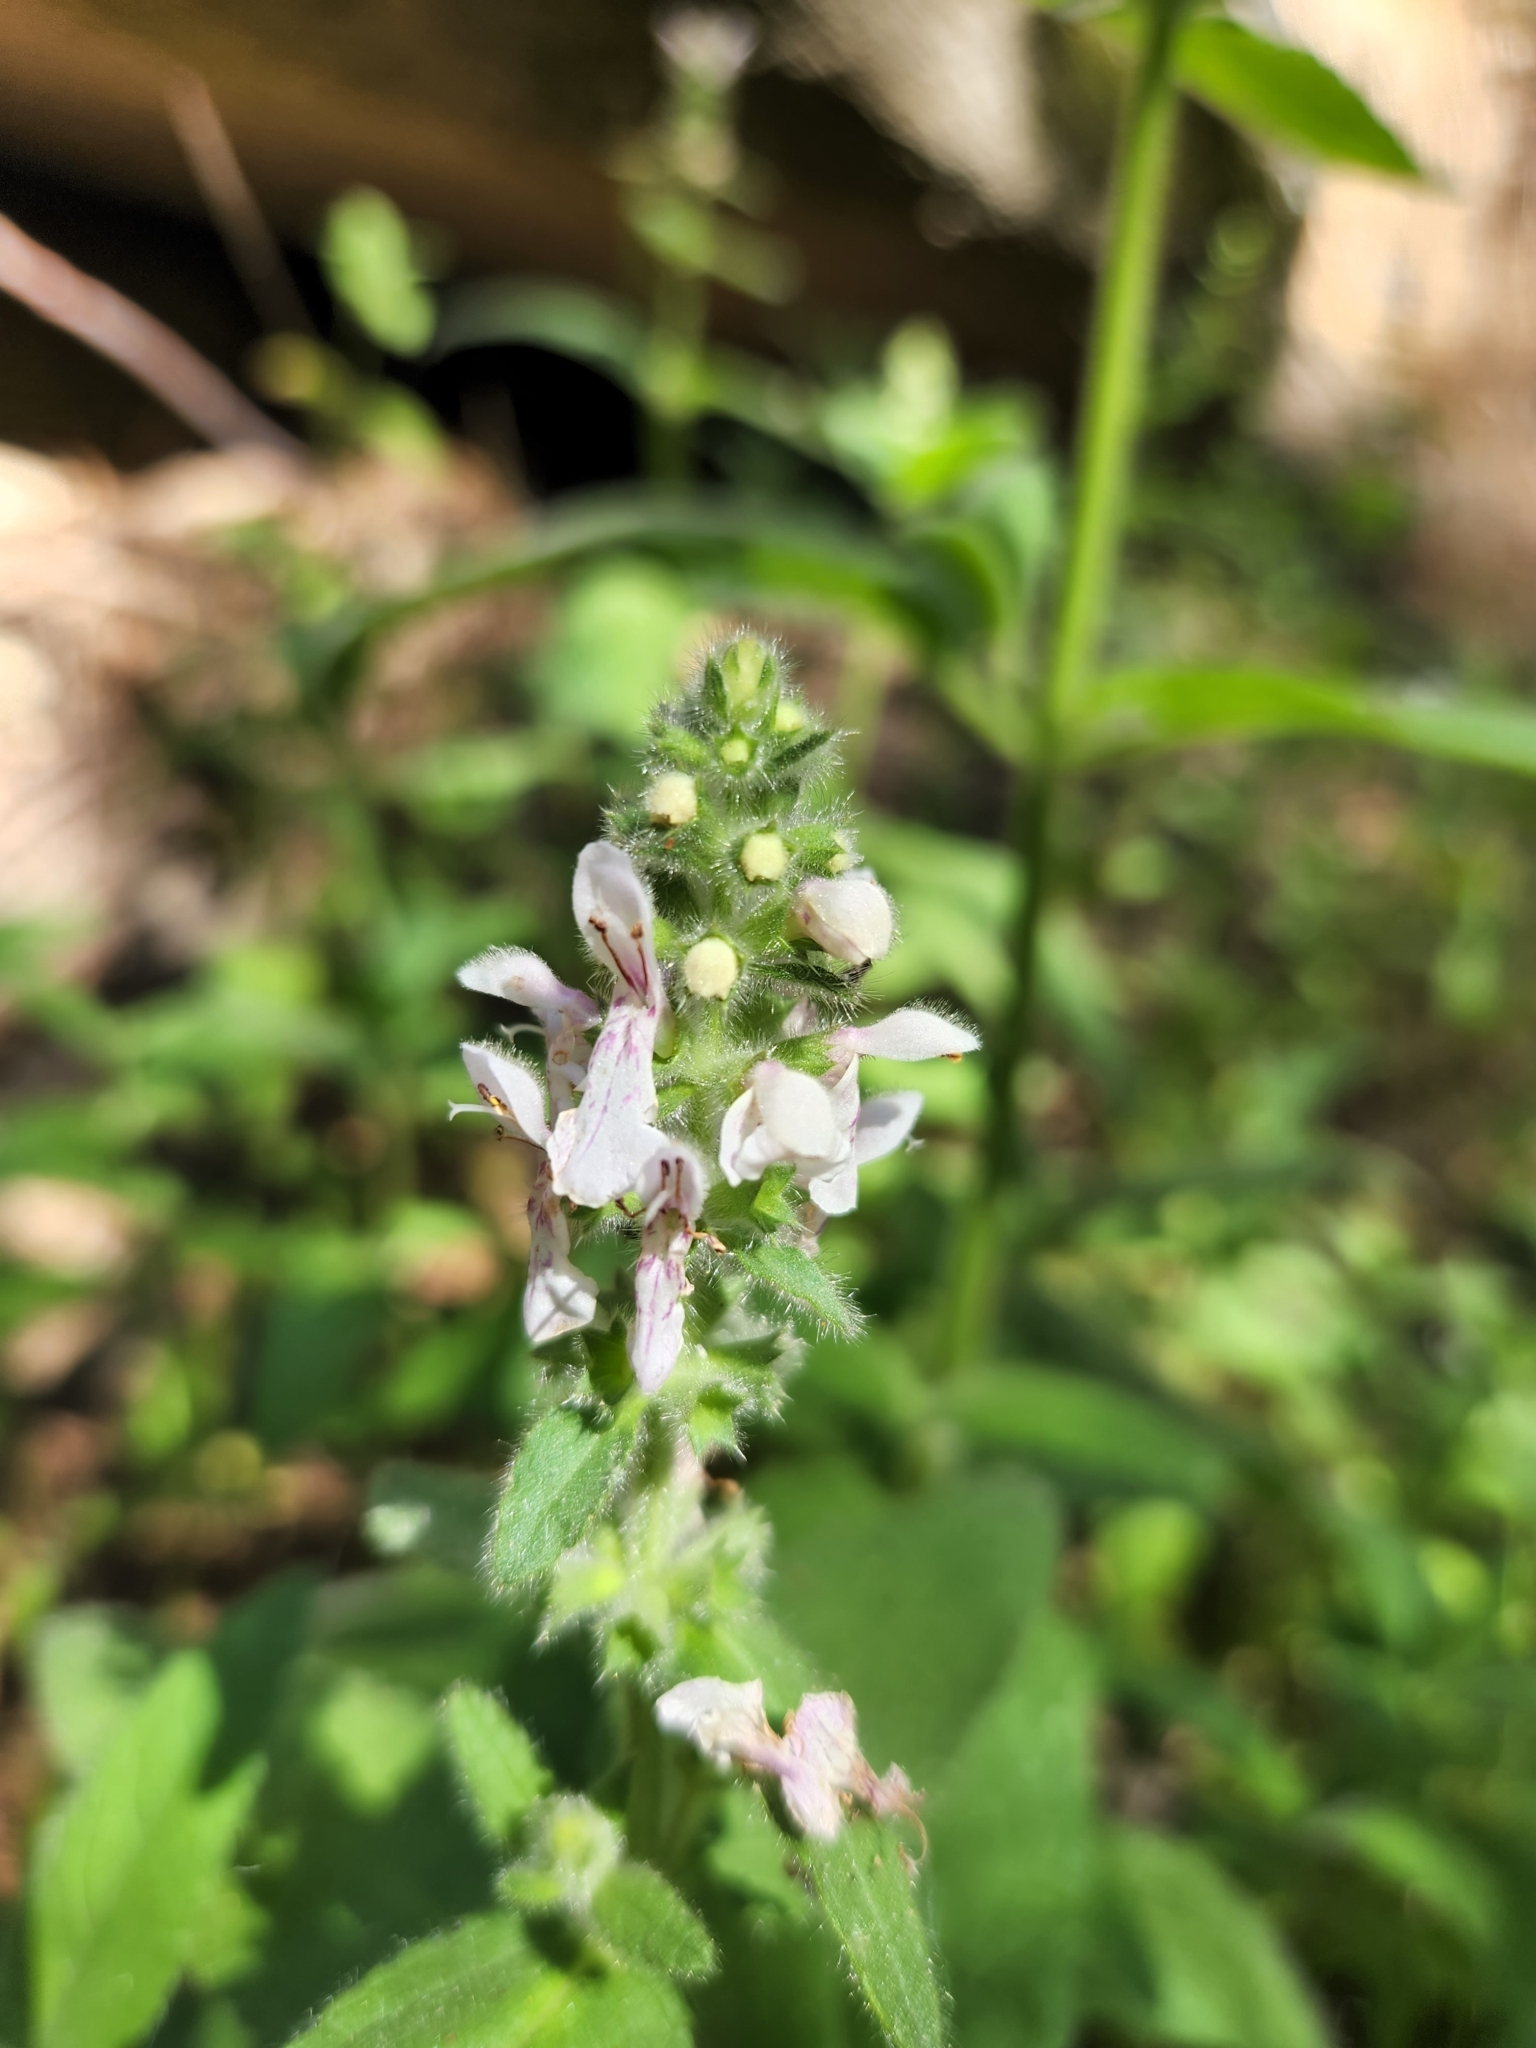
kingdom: Plantae
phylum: Tracheophyta
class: Magnoliopsida
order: Lamiales
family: Lamiaceae
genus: Stachys
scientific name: Stachys rigida
